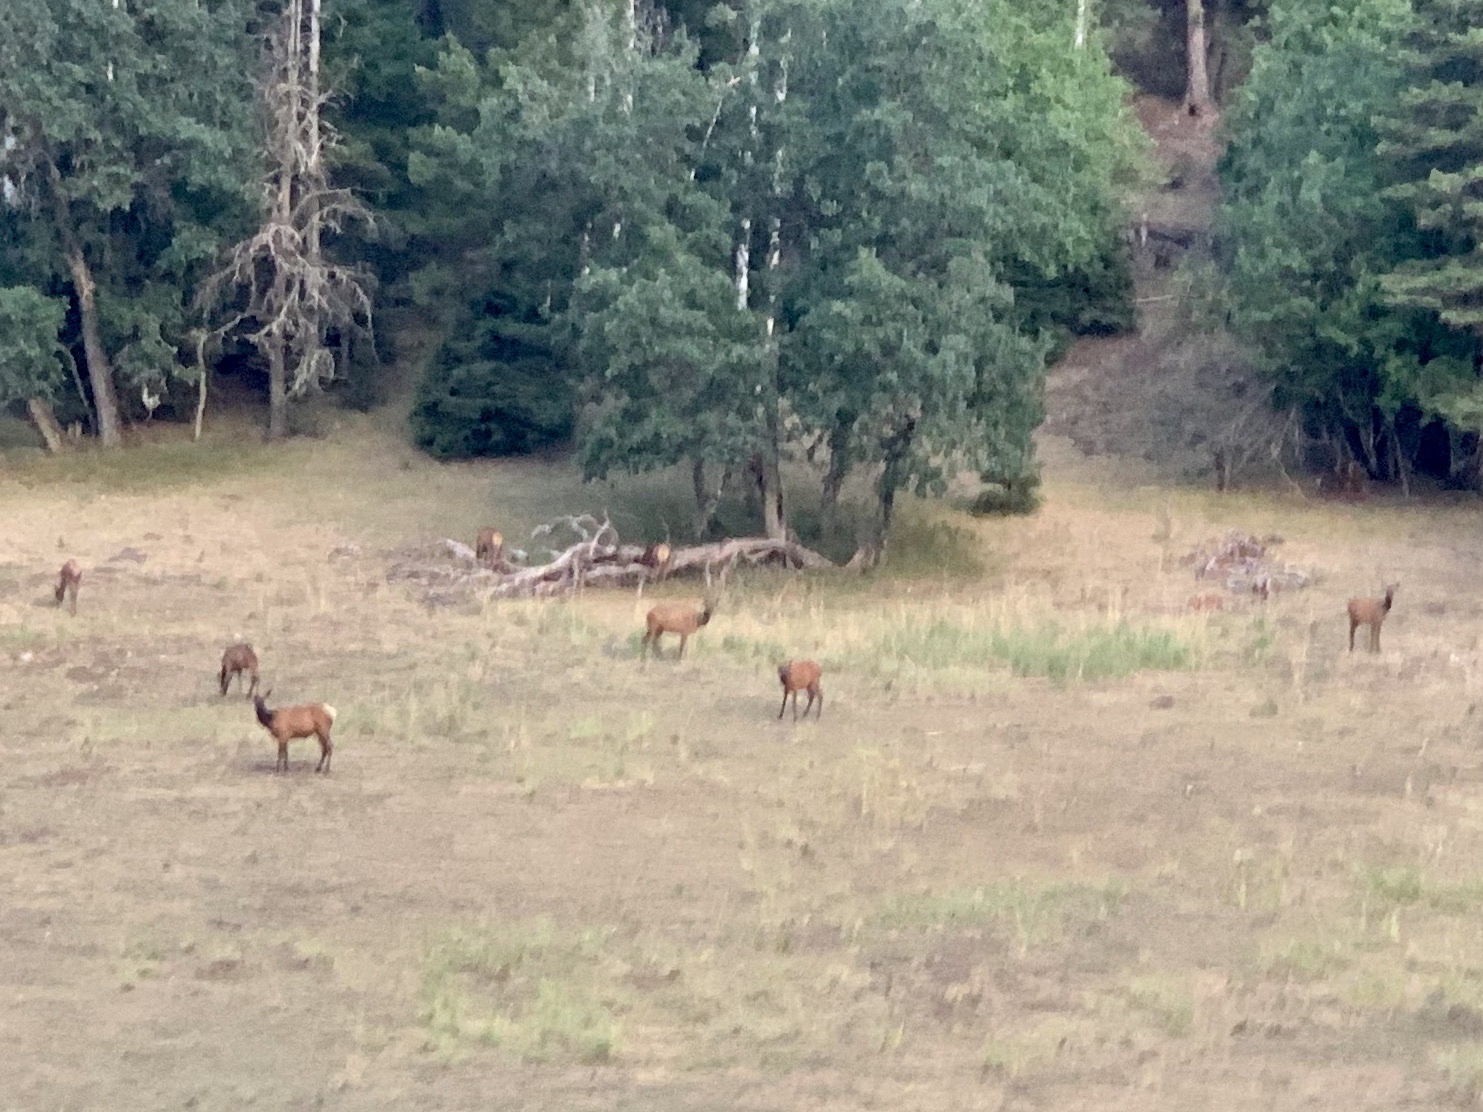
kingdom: Animalia
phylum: Chordata
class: Mammalia
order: Artiodactyla
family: Cervidae
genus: Cervus
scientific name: Cervus elaphus
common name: Red deer
